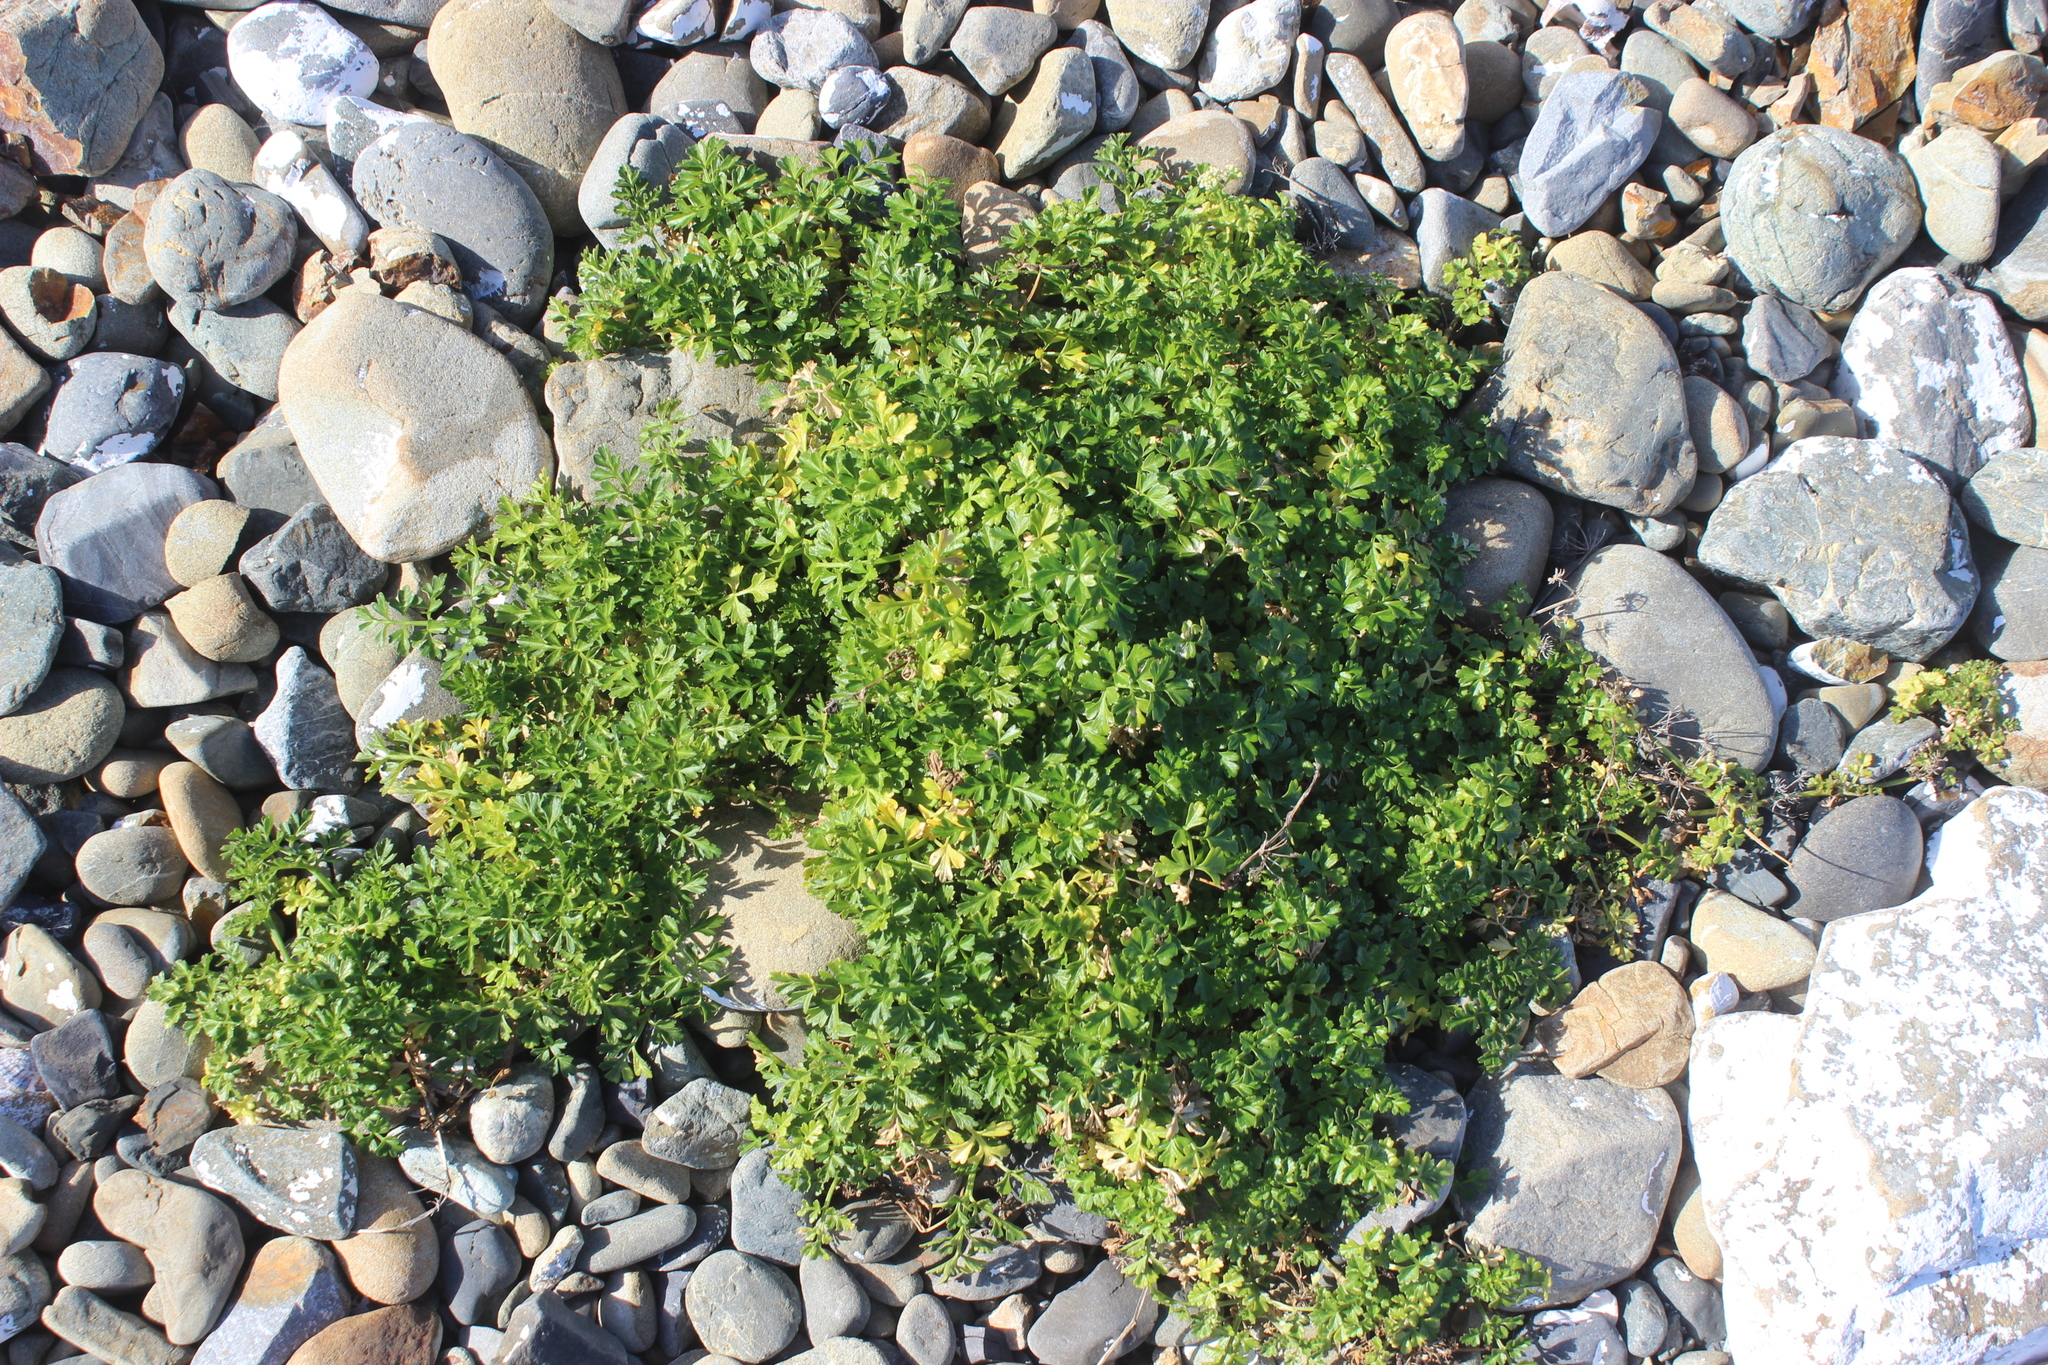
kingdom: Plantae
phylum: Tracheophyta
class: Magnoliopsida
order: Apiales
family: Apiaceae
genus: Apium
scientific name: Apium prostratum
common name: Prostrate marshwort
